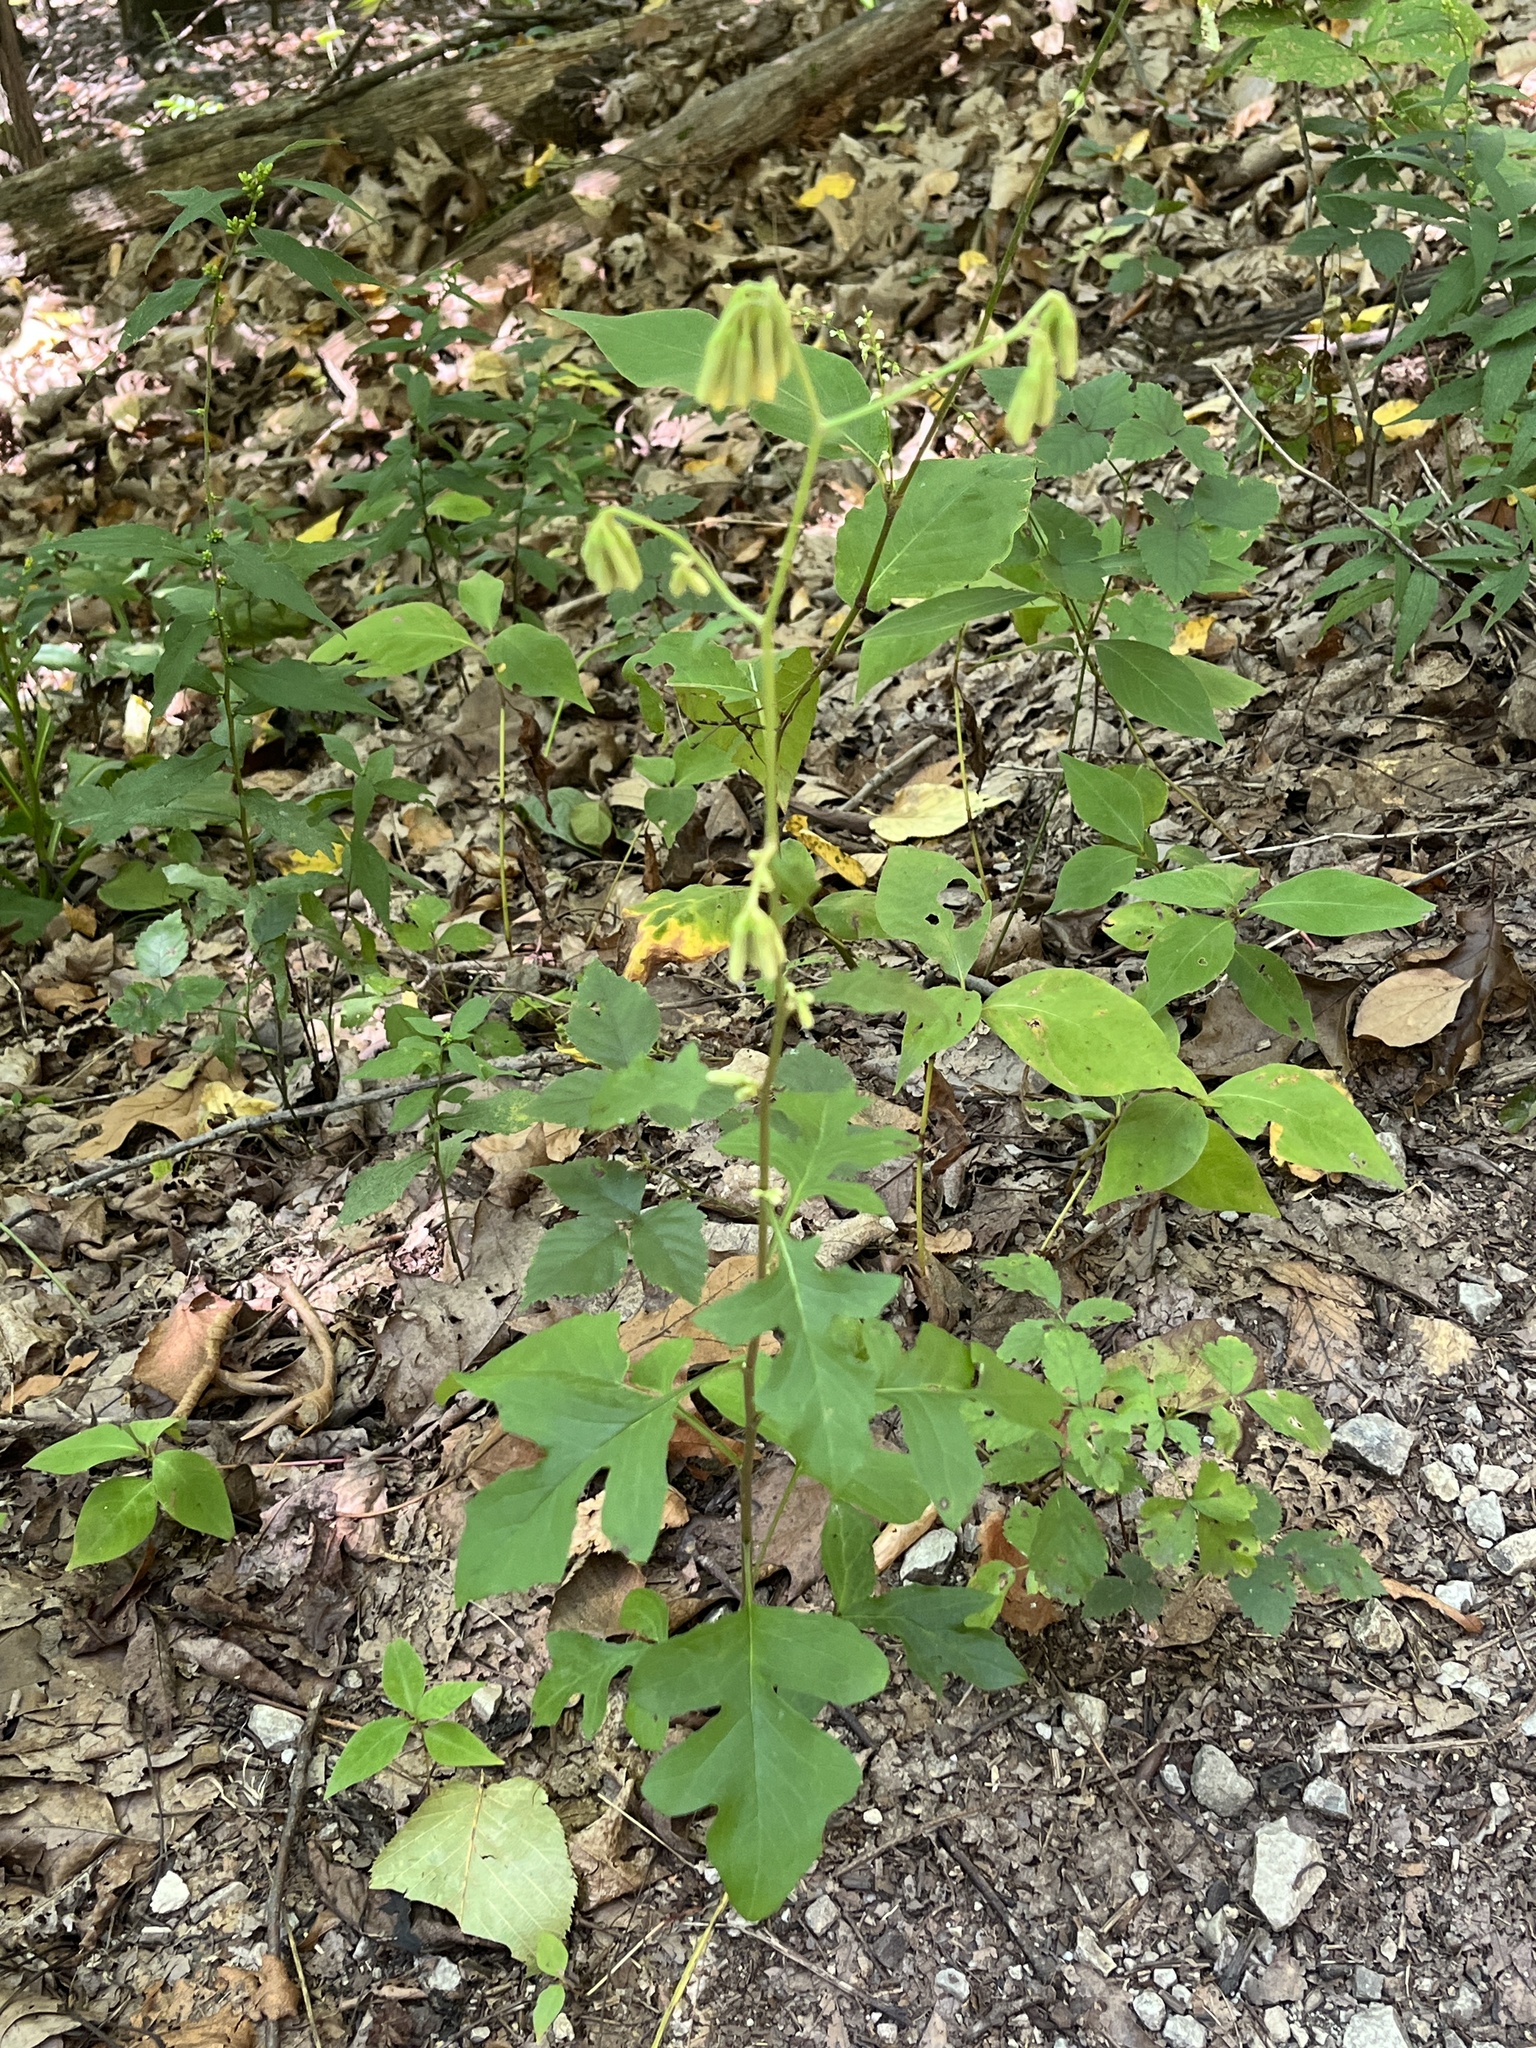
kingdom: Plantae
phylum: Tracheophyta
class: Magnoliopsida
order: Asterales
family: Asteraceae
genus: Nabalus
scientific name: Nabalus serpentarius
